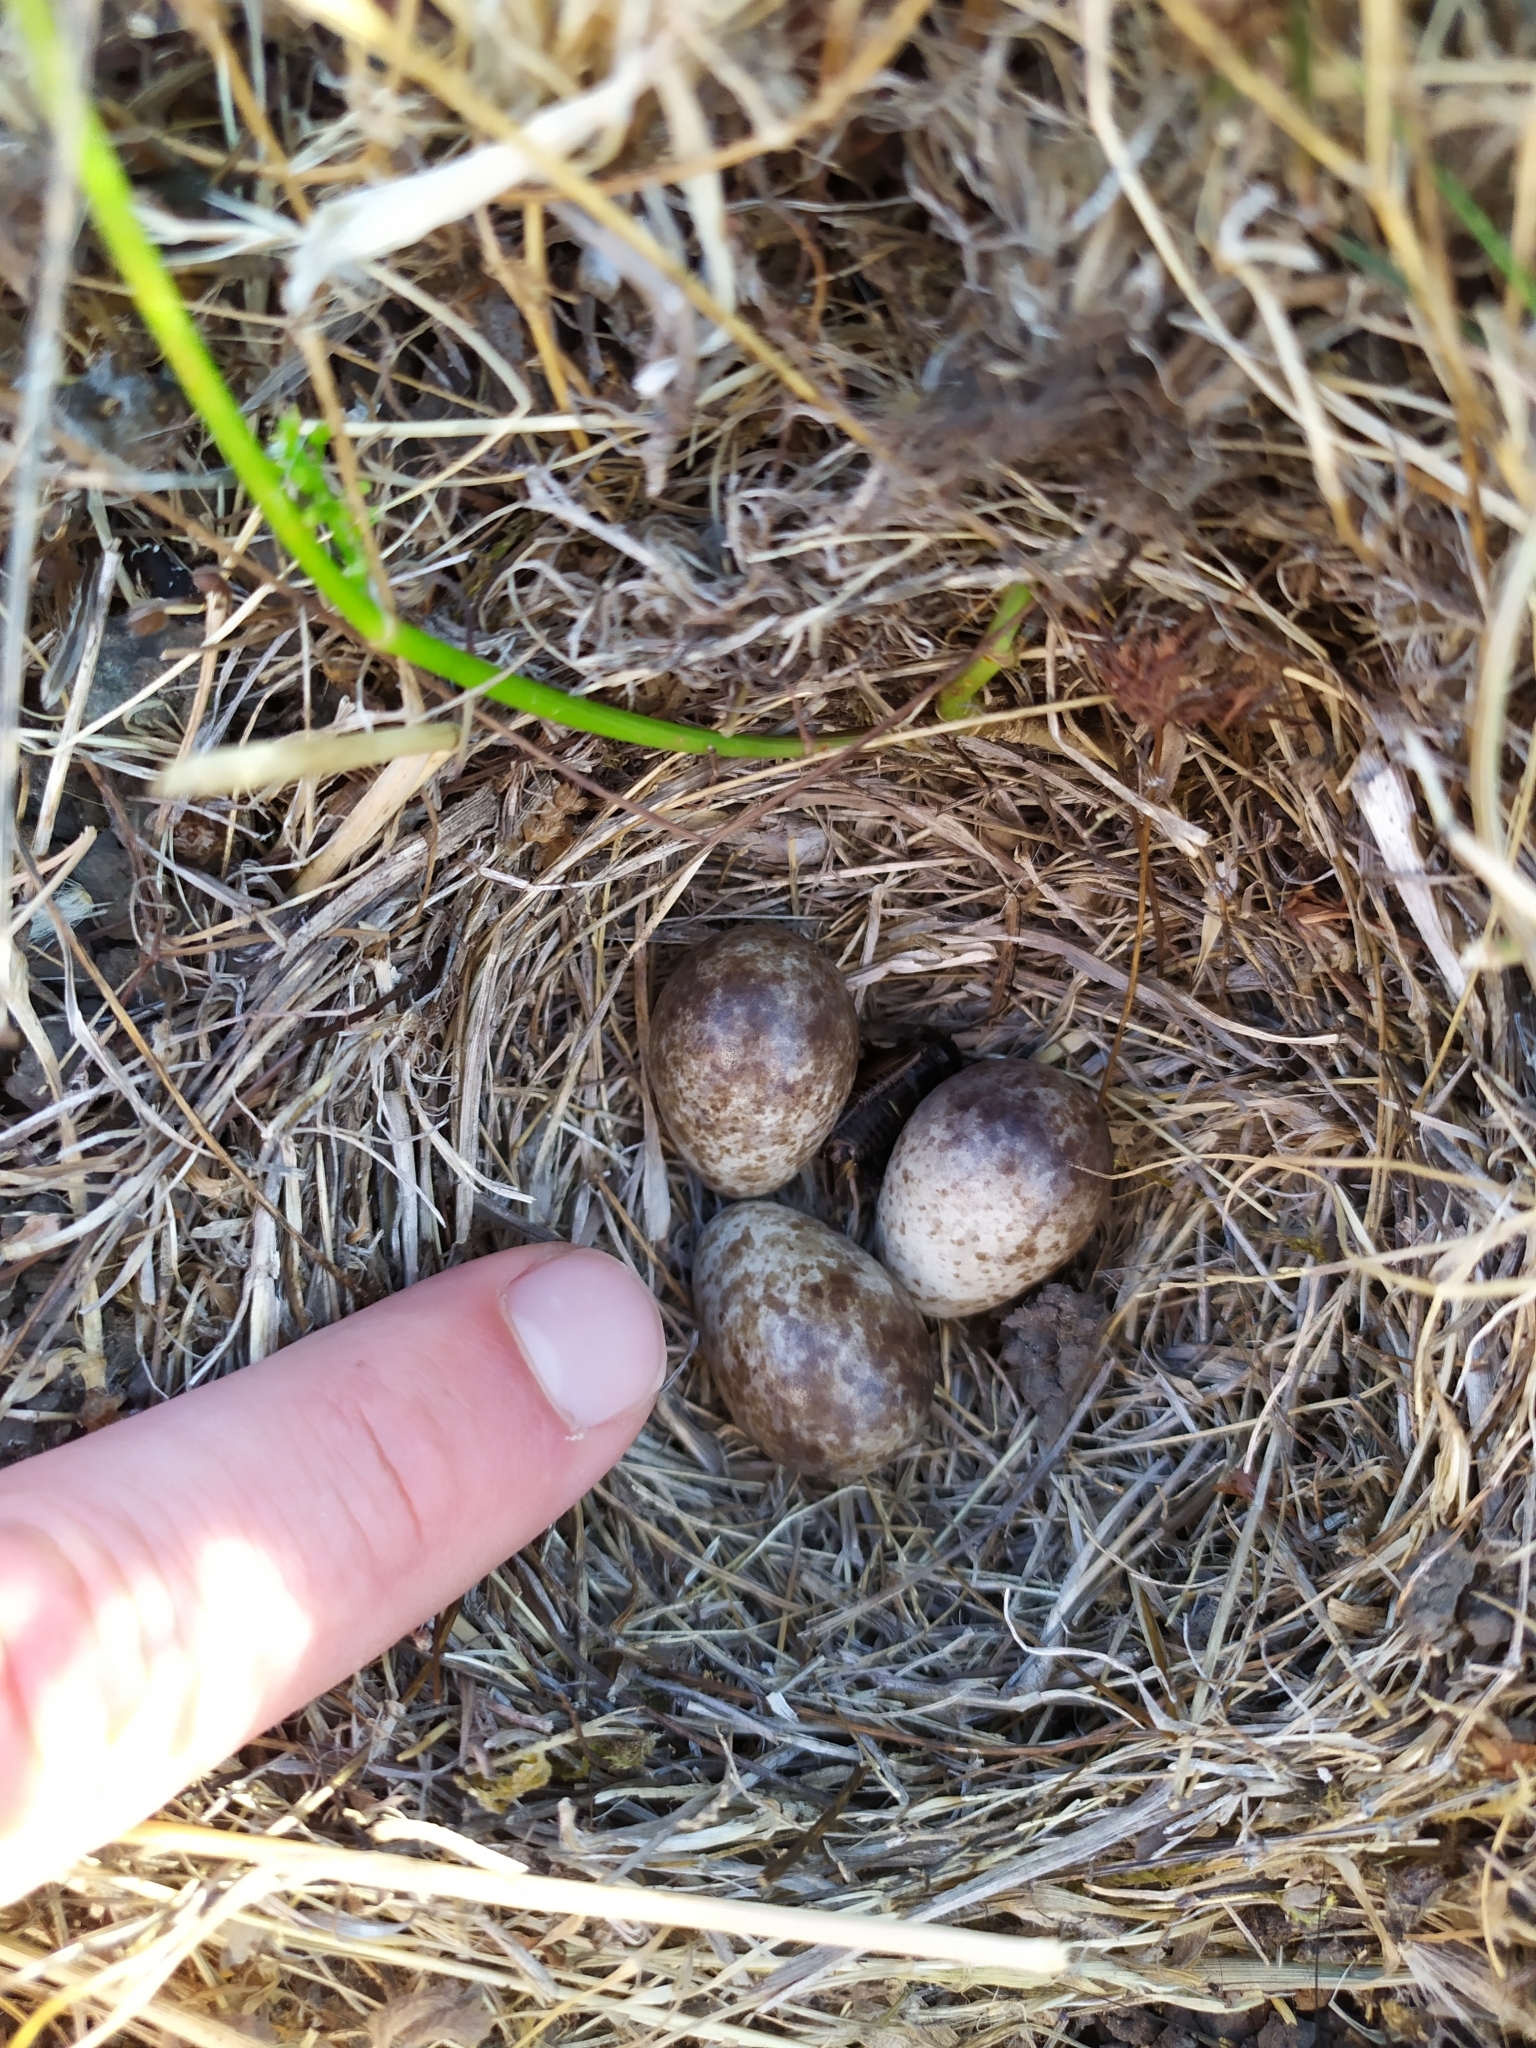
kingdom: Animalia
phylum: Chordata
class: Aves
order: Passeriformes
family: Alaudidae
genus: Alauda
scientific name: Alauda arvensis
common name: Eurasian skylark
